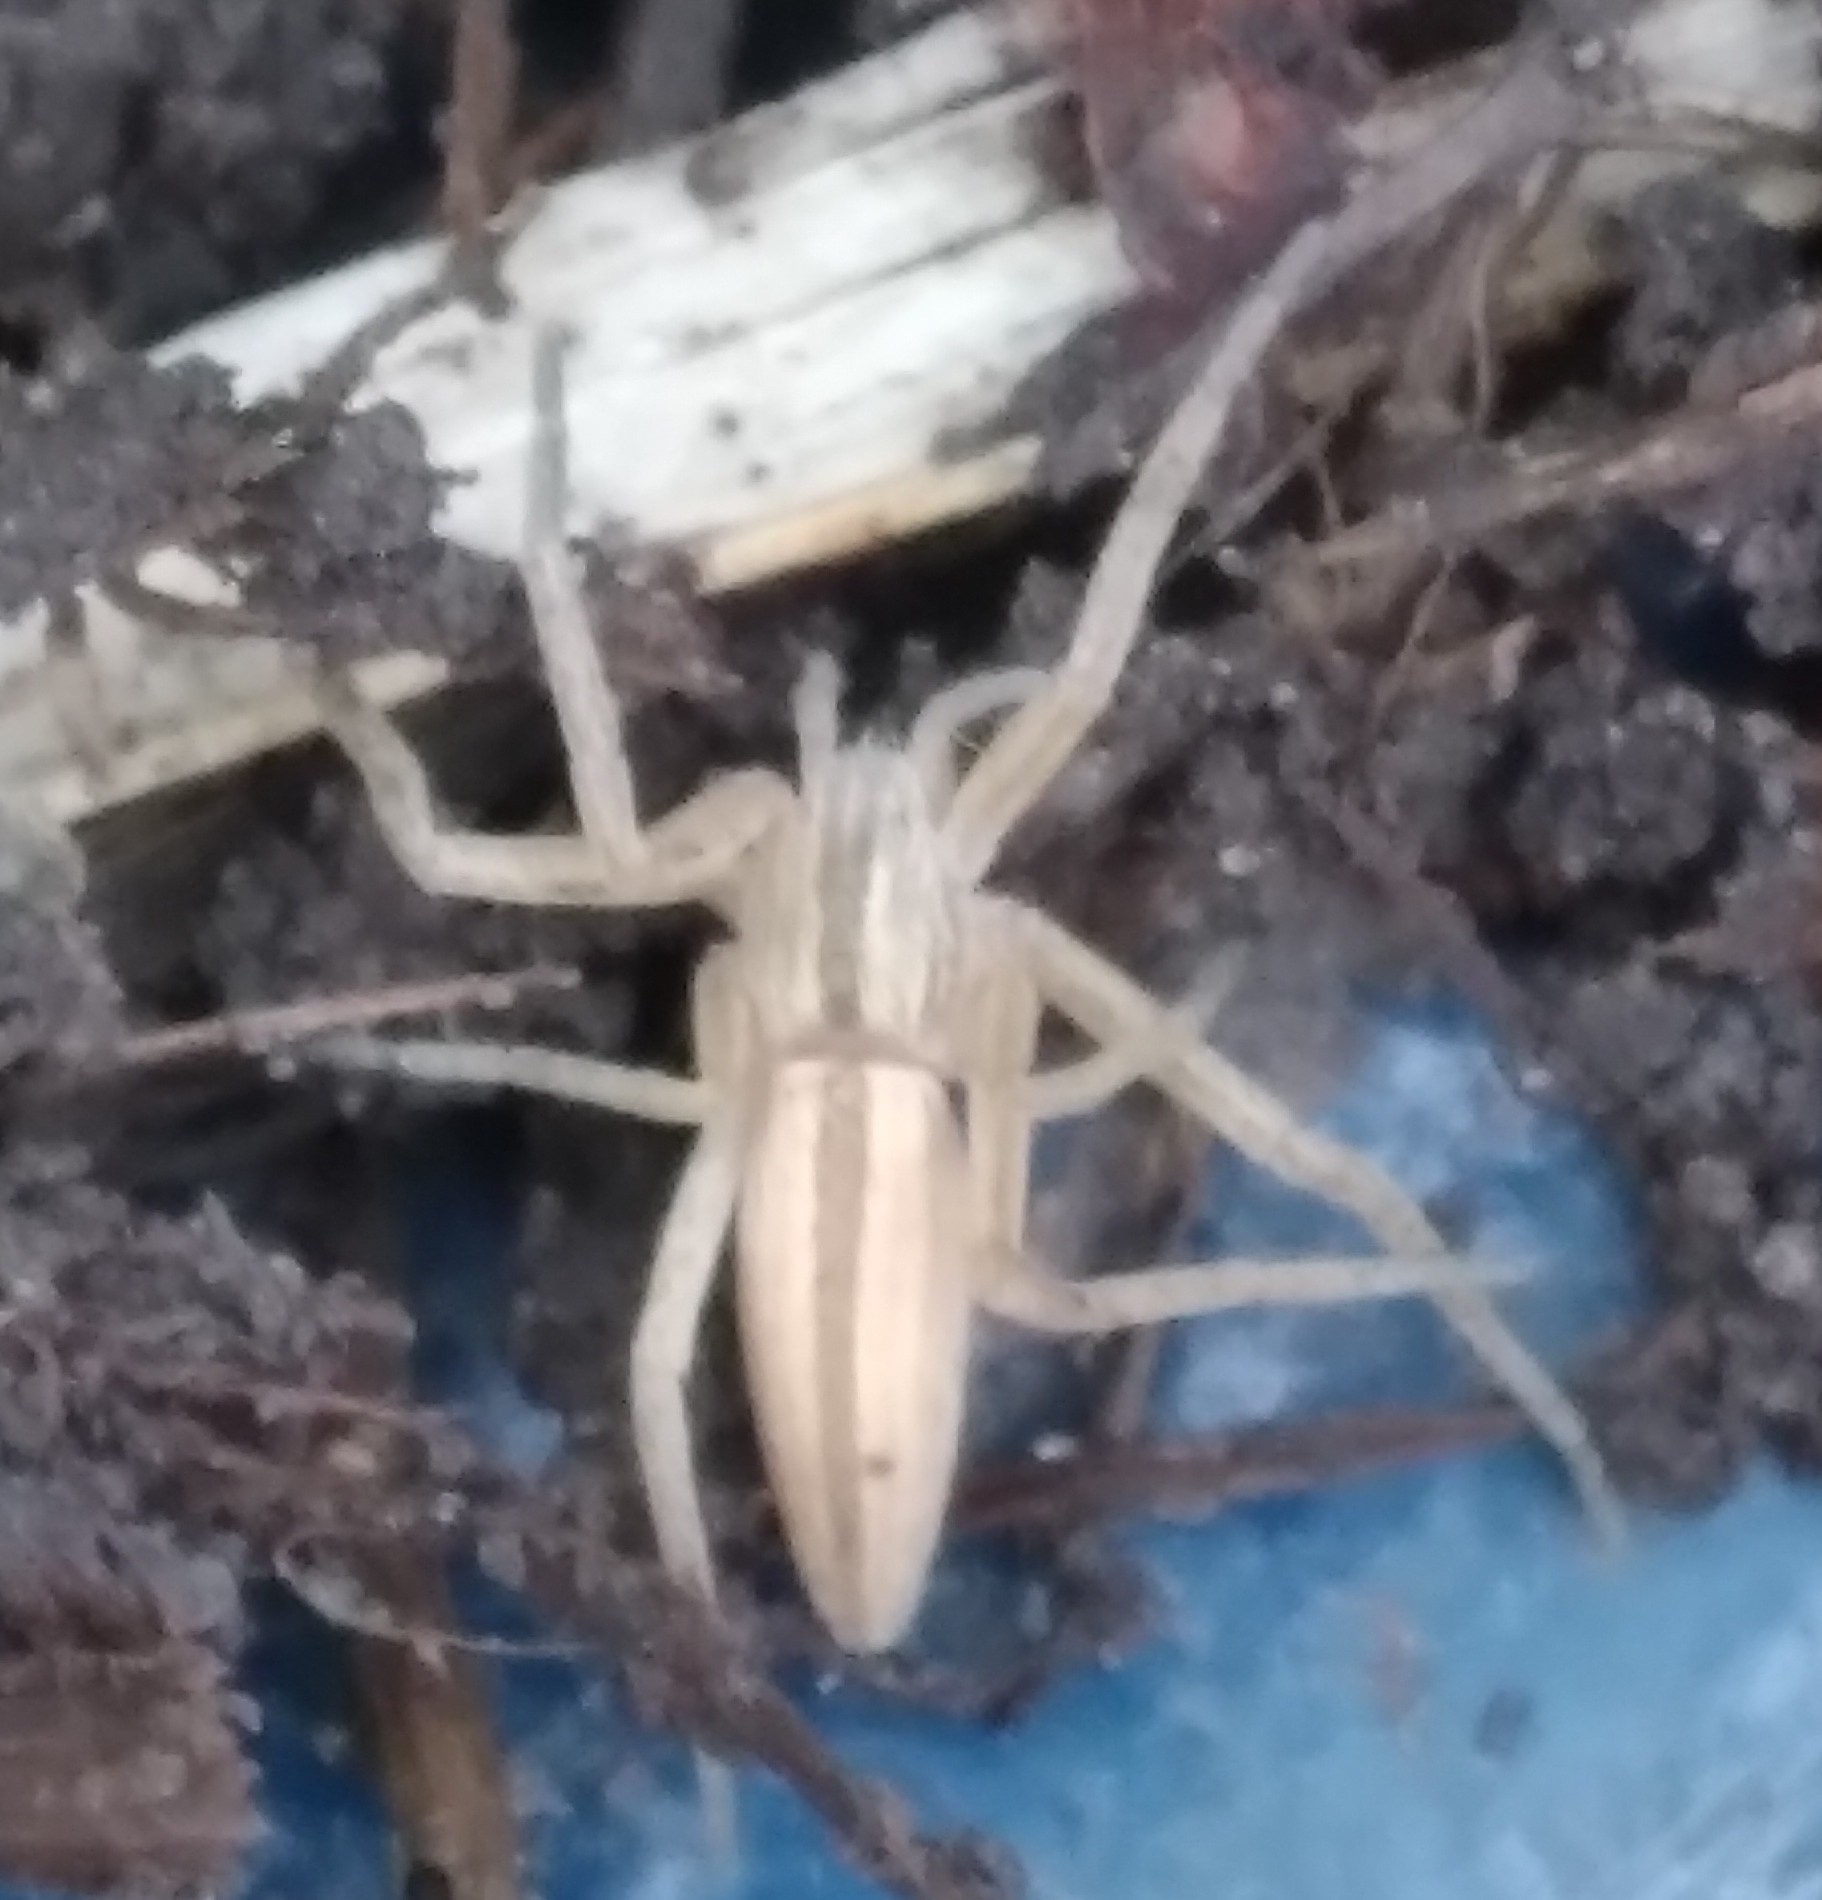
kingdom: Animalia
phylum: Arthropoda
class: Arachnida
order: Araneae
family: Philodromidae
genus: Tibellus
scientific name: Tibellus oblongus
